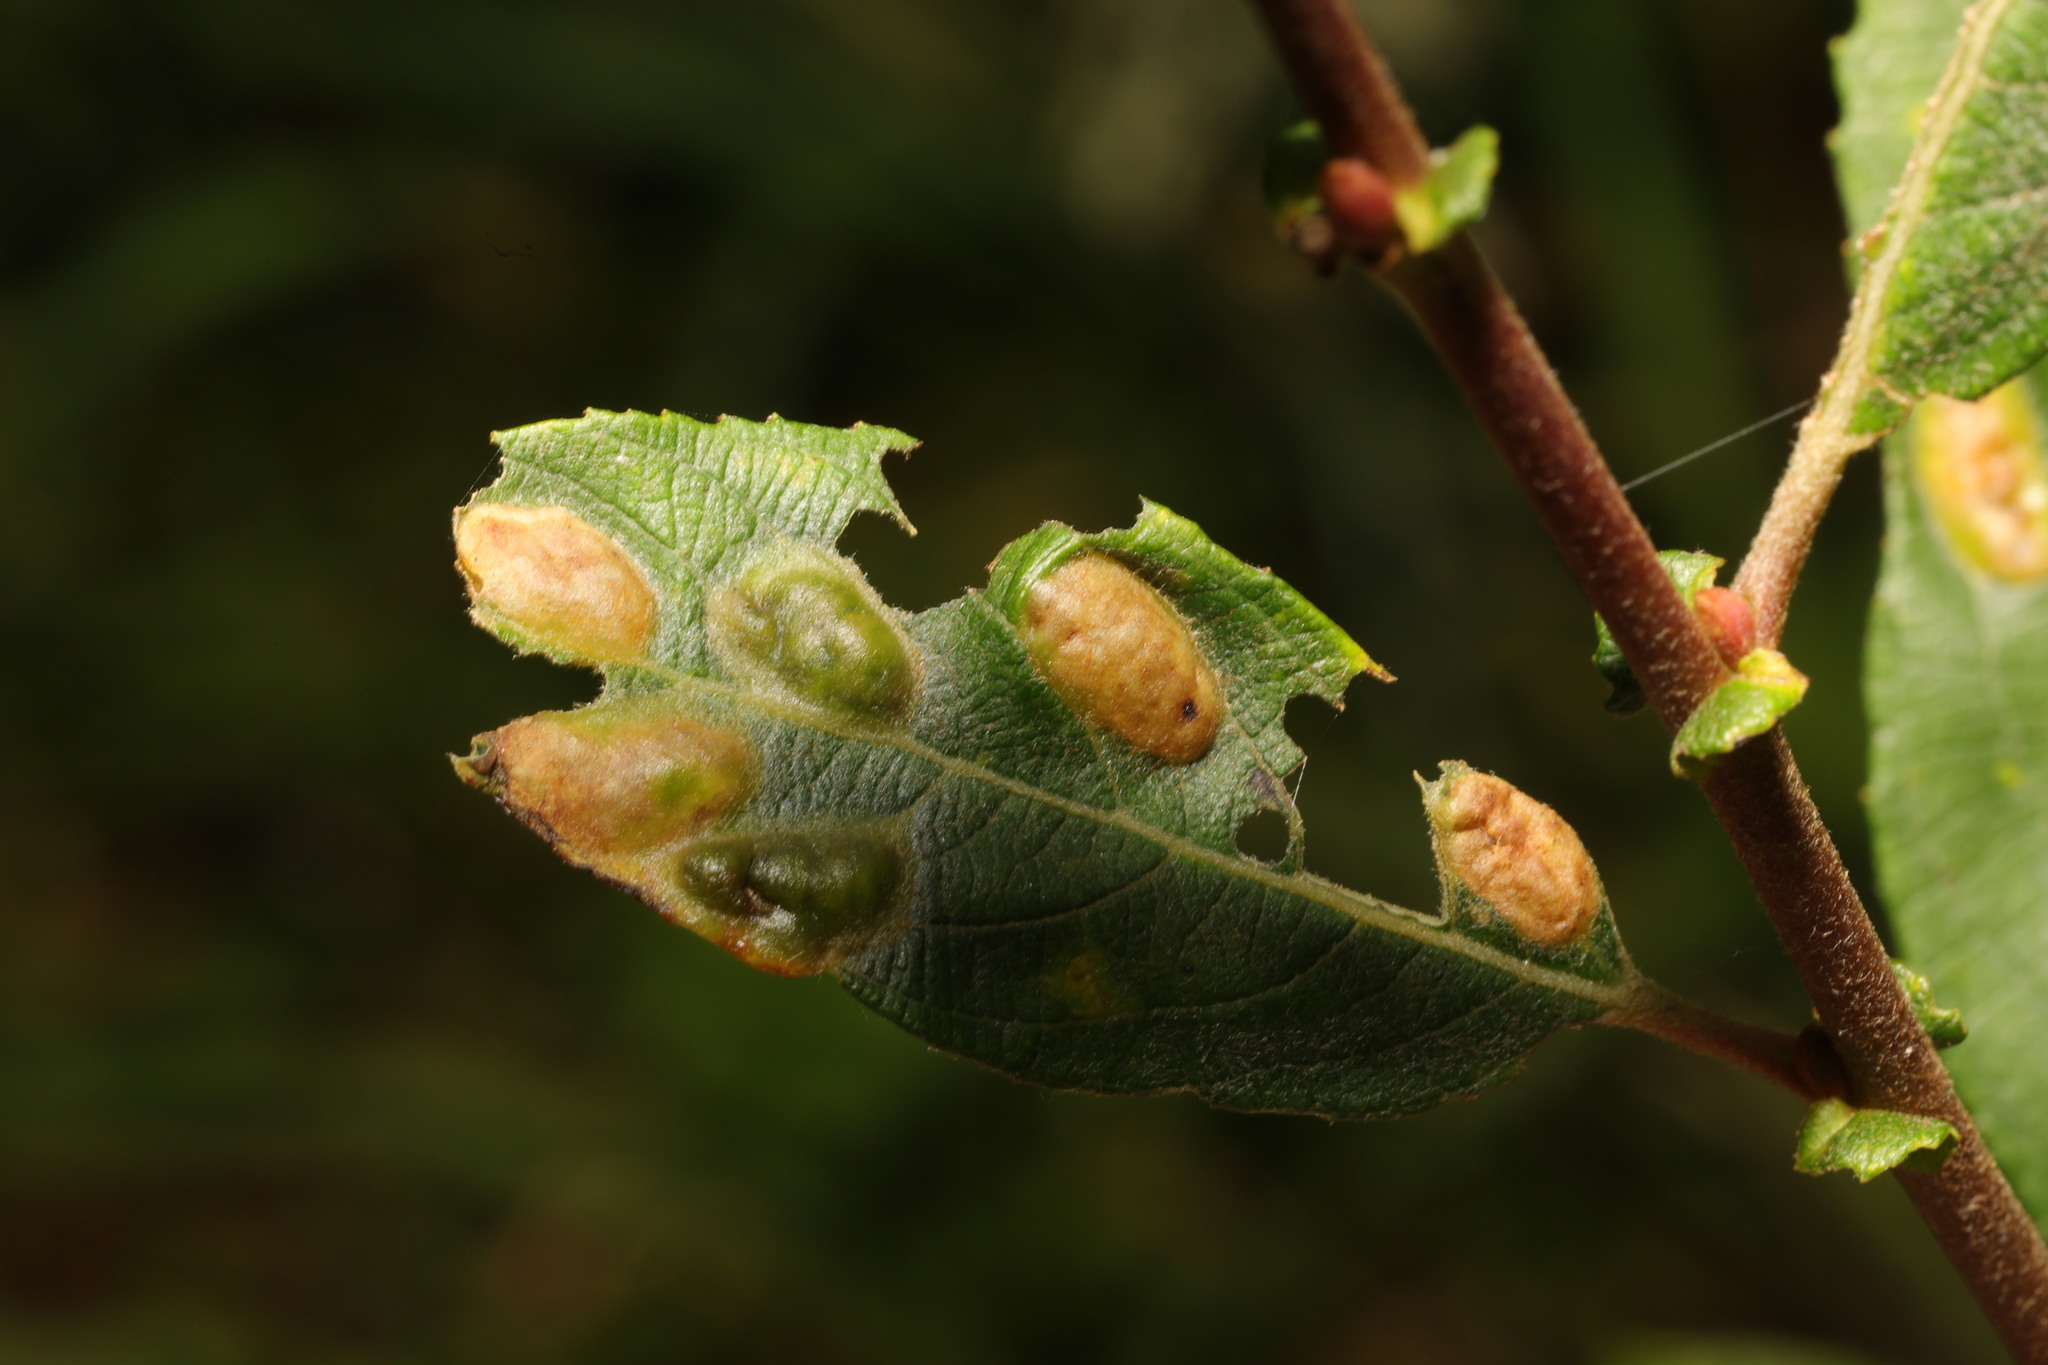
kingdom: Animalia
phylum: Arthropoda
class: Insecta
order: Diptera
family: Cecidomyiidae
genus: Iteomyia
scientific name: Iteomyia major
